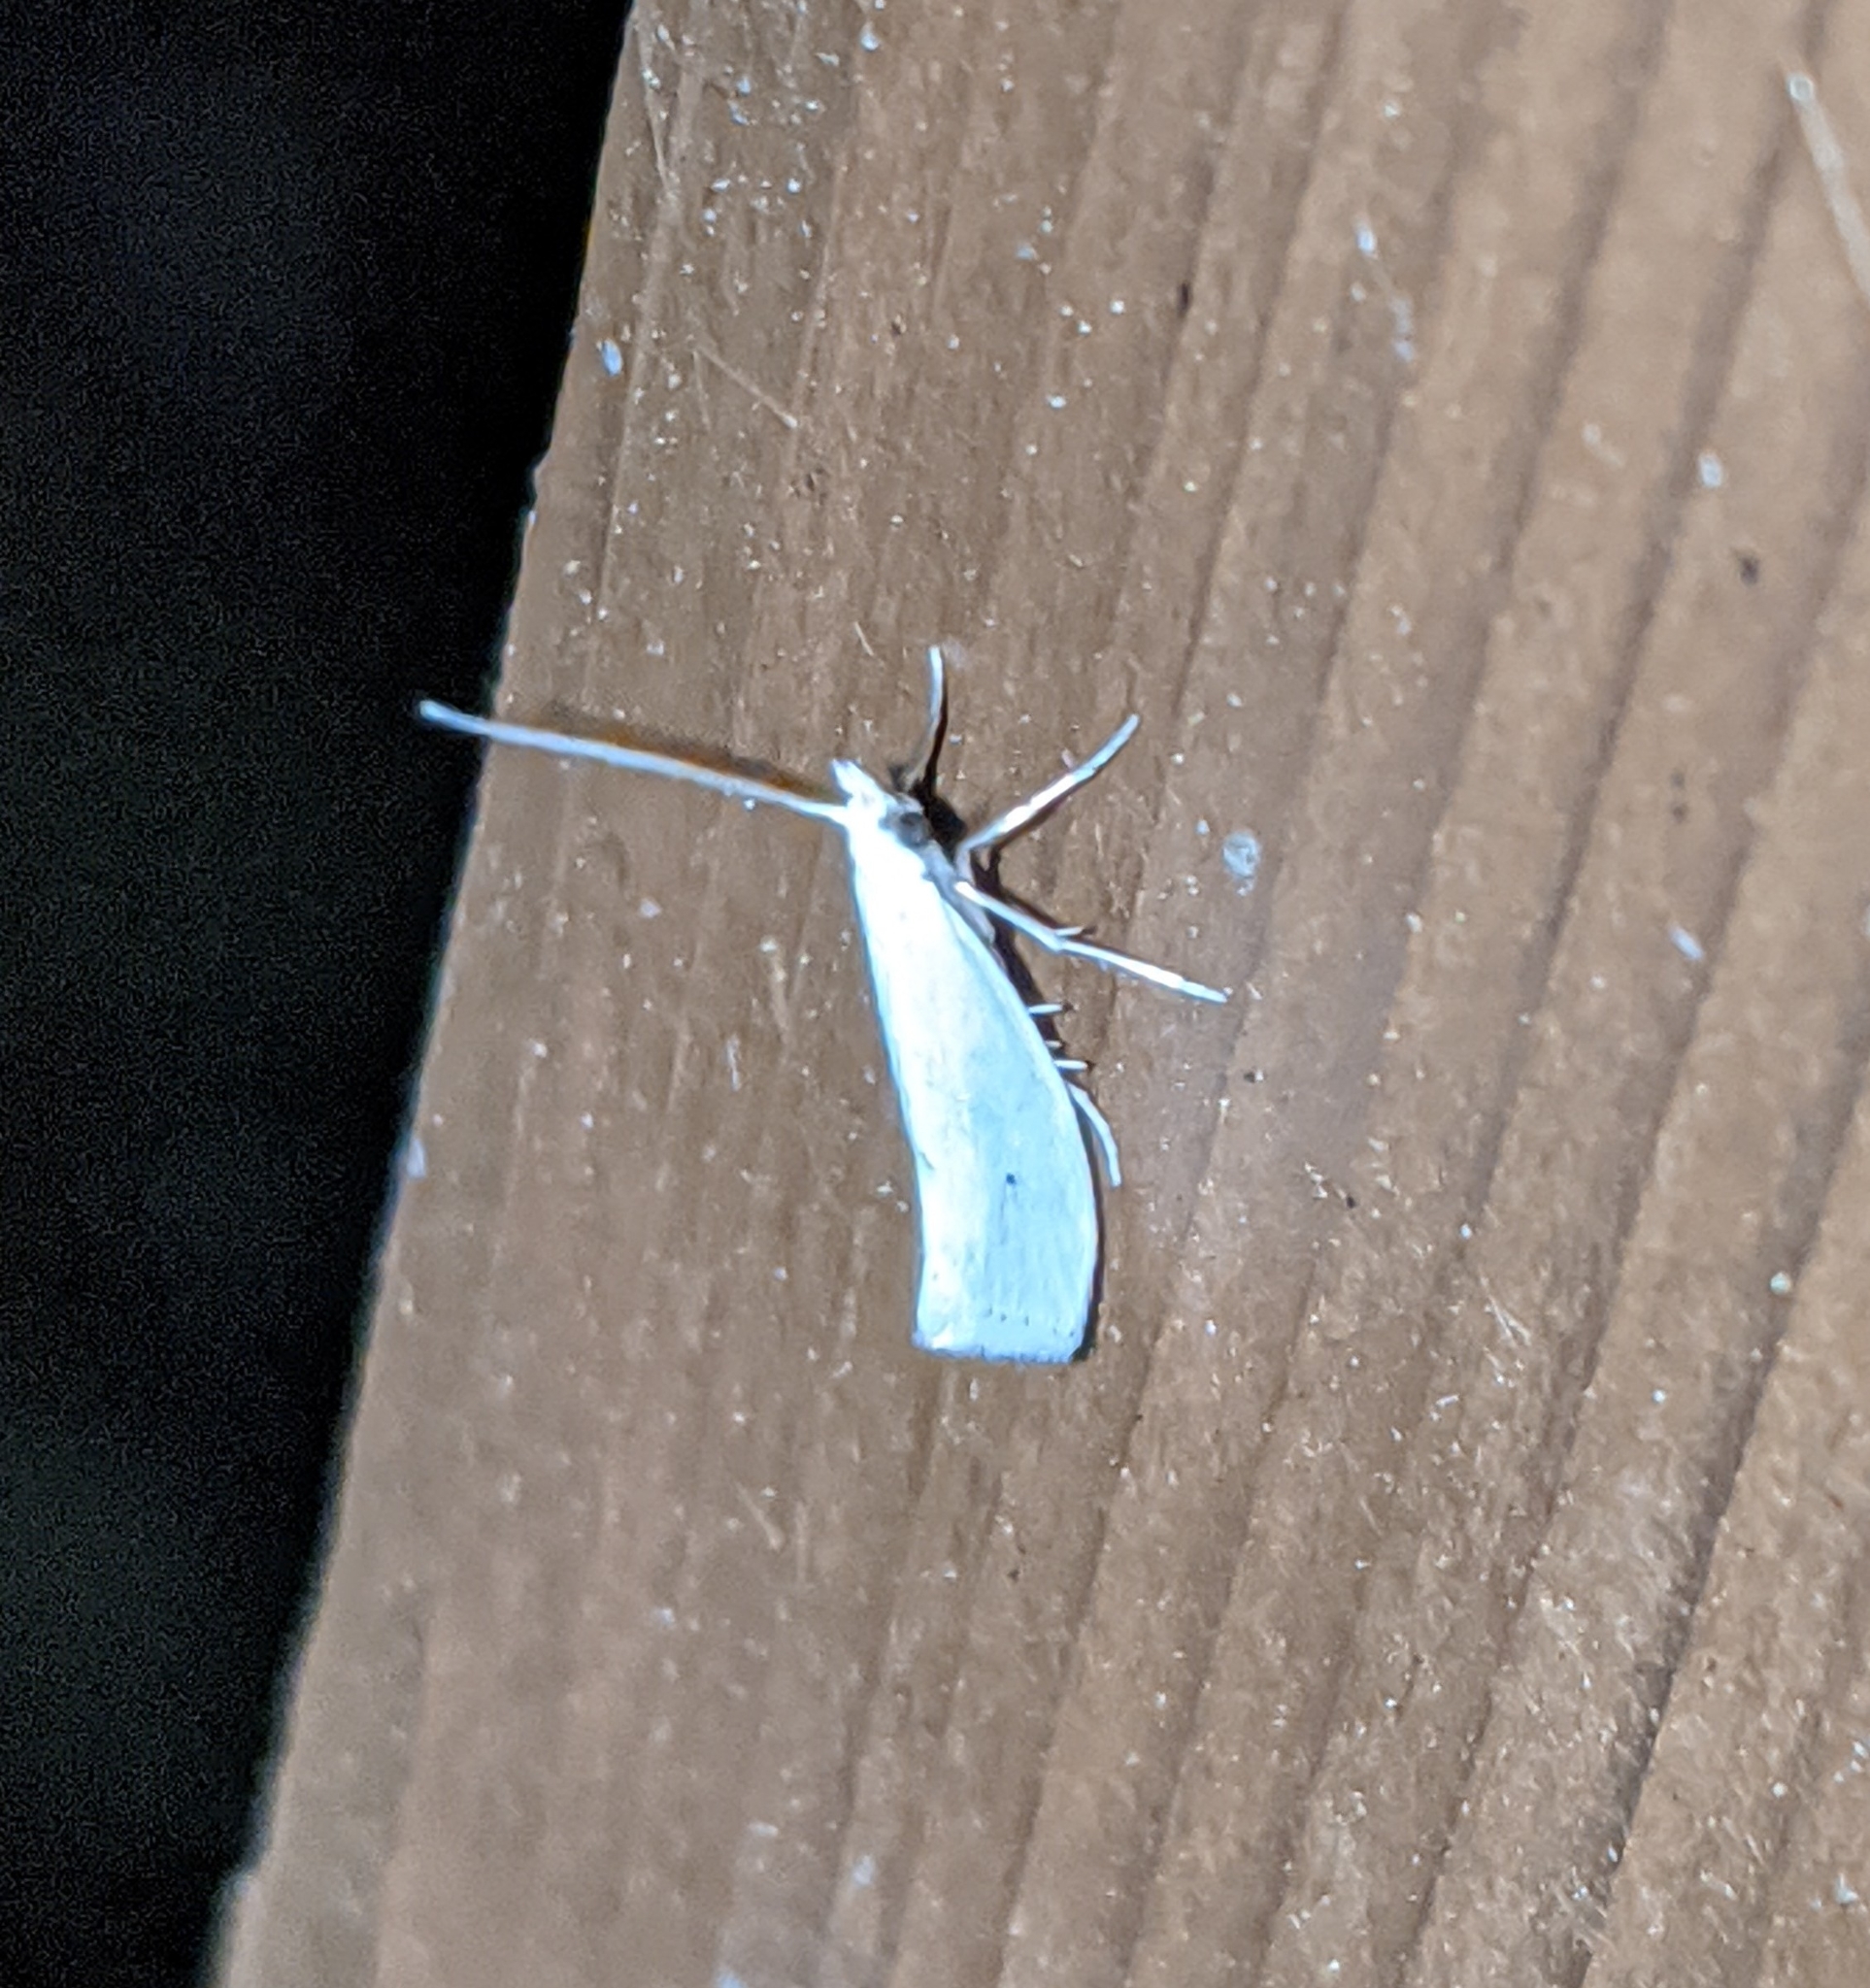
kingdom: Animalia
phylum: Arthropoda
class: Insecta
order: Lepidoptera
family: Yponomeutidae
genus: Eucalantica
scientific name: Eucalantica polita
